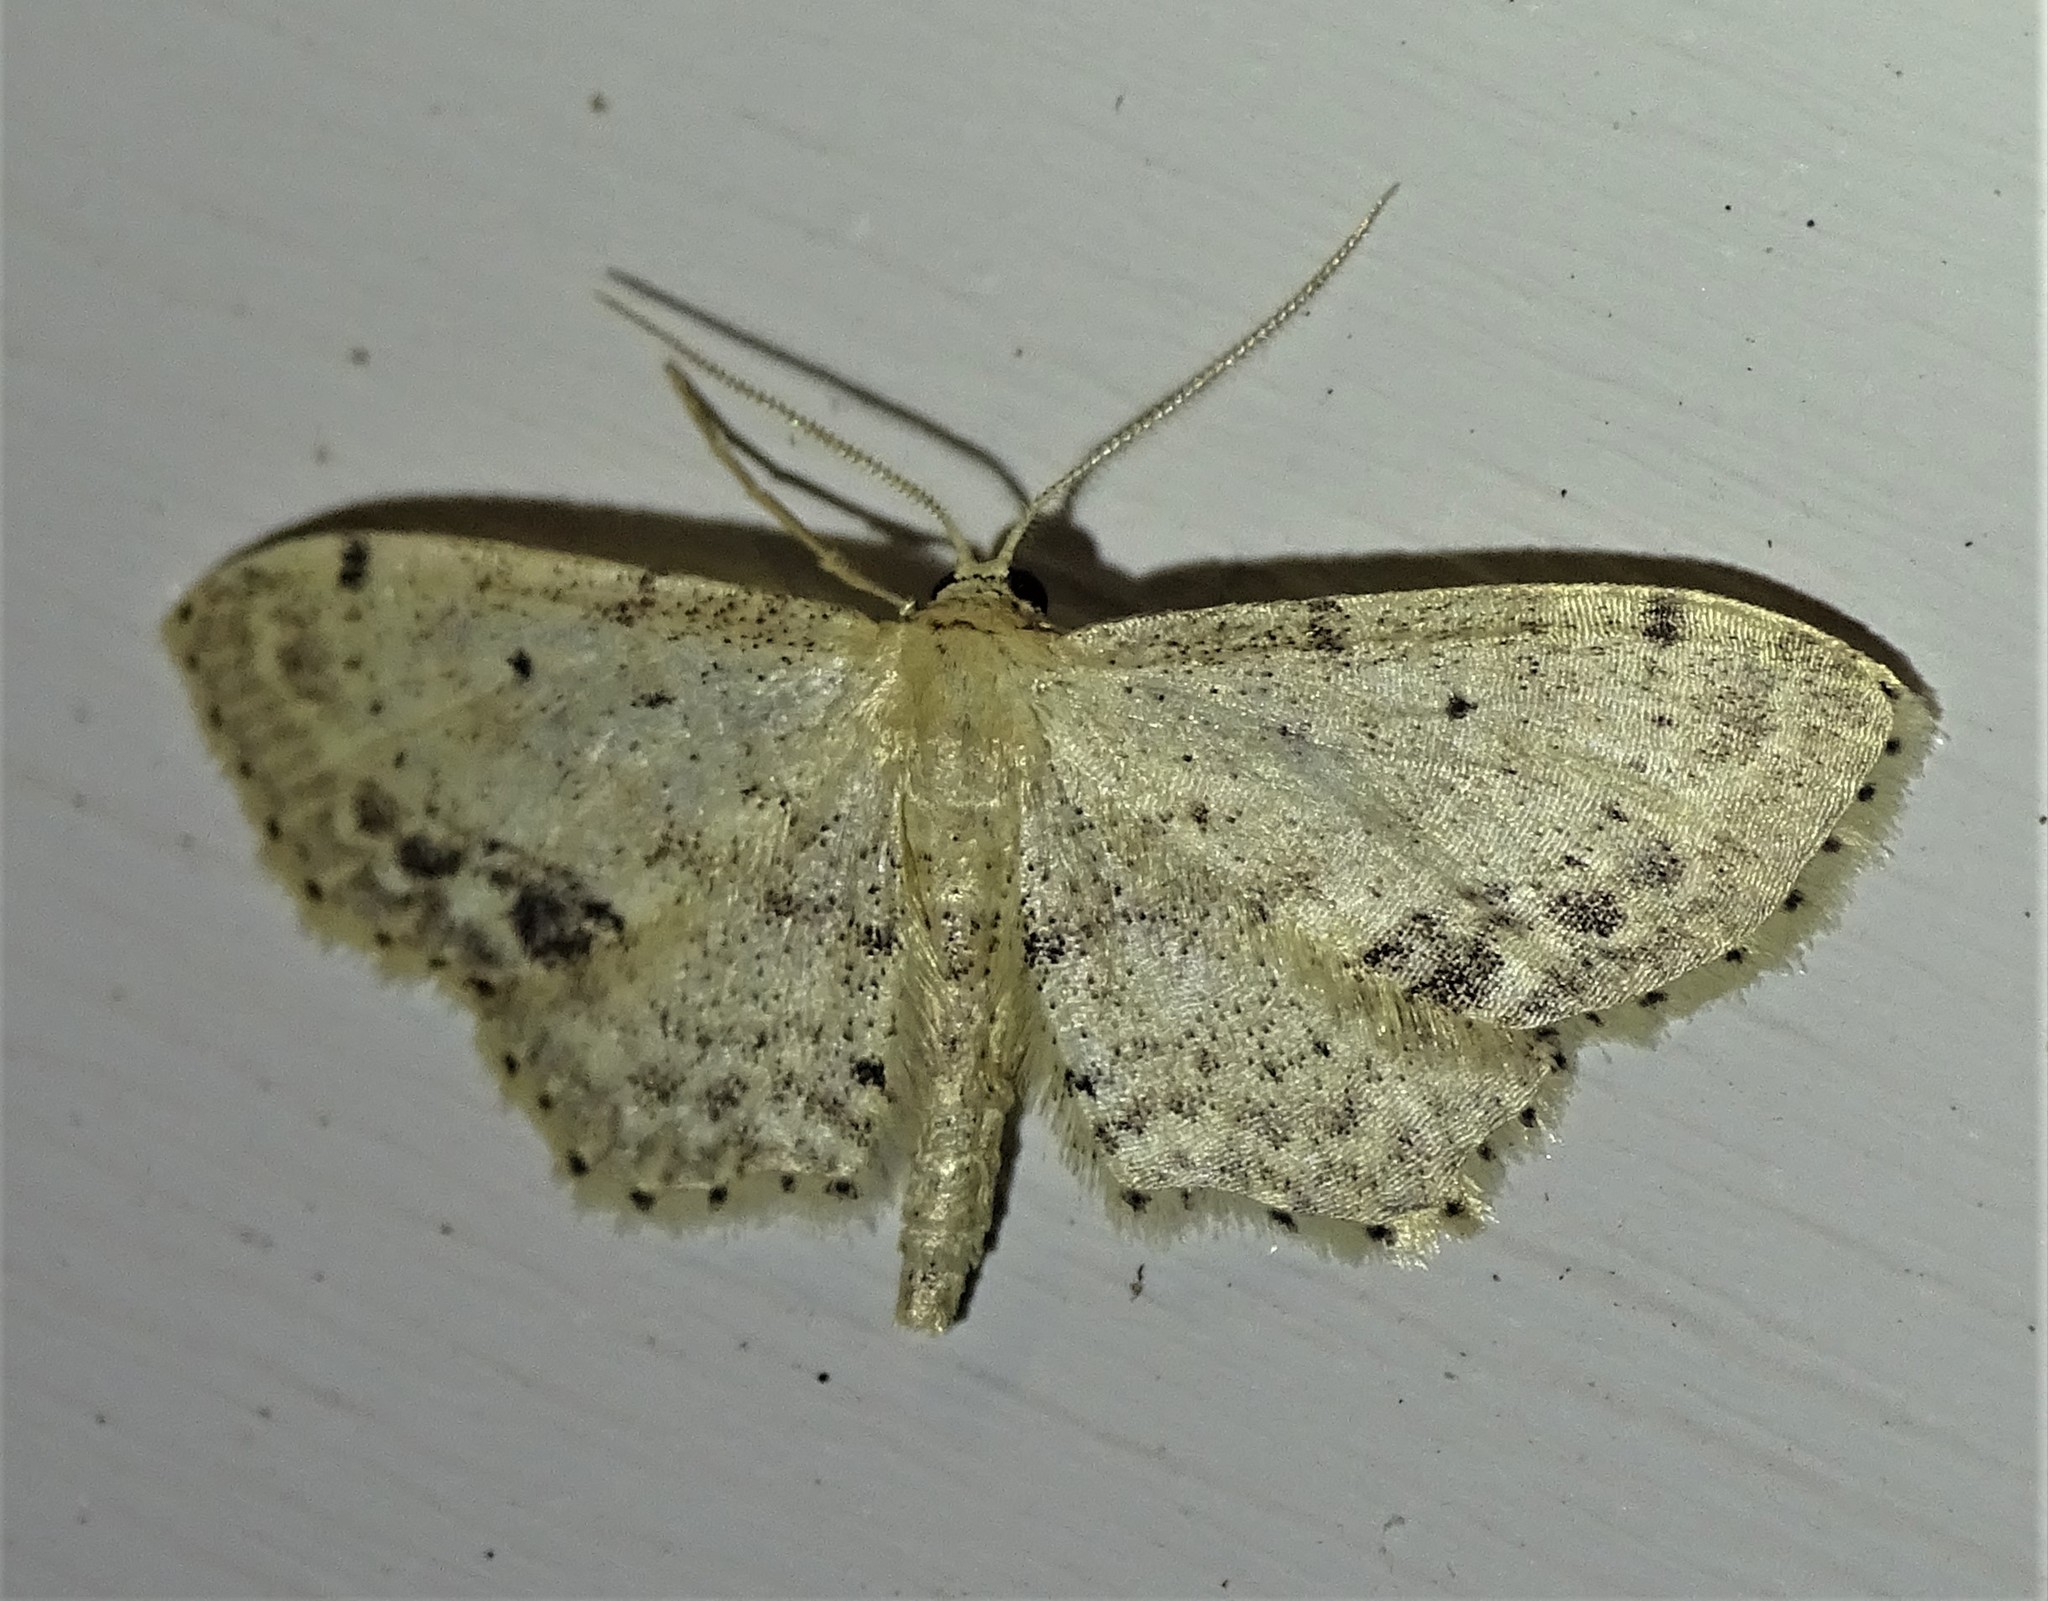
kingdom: Animalia
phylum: Arthropoda
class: Insecta
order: Lepidoptera
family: Geometridae
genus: Idaea
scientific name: Idaea dimidiata
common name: Single-dotted wave
